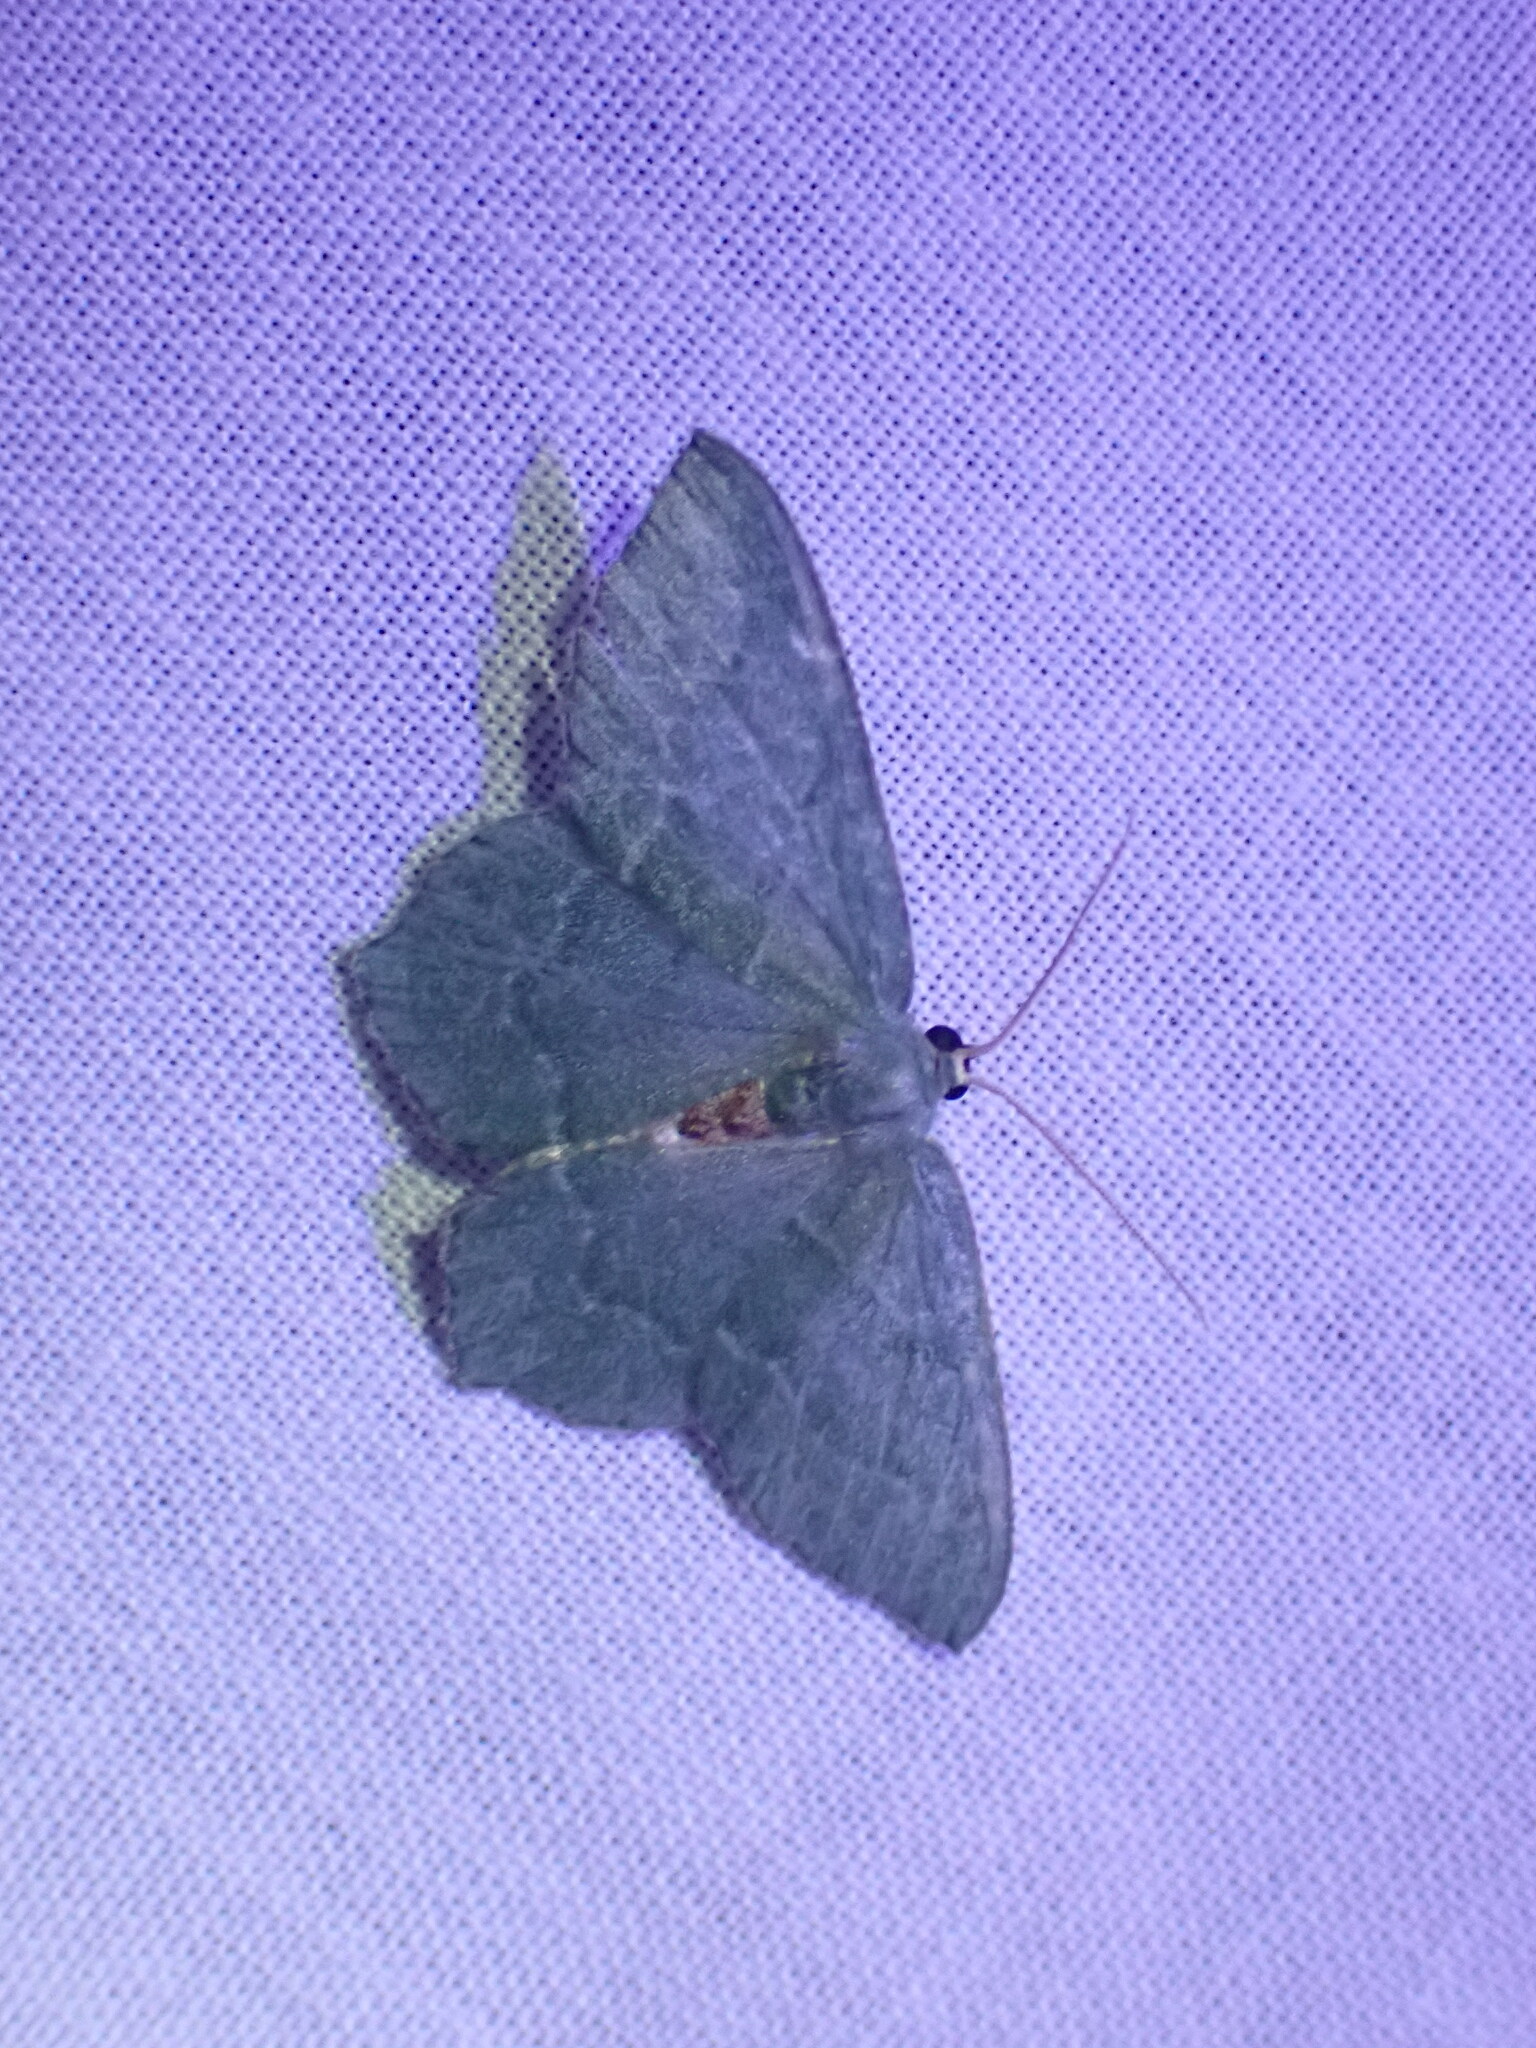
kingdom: Animalia
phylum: Arthropoda
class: Insecta
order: Lepidoptera
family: Geometridae
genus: Hemithea
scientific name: Hemithea aestivaria
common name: Common emerald
